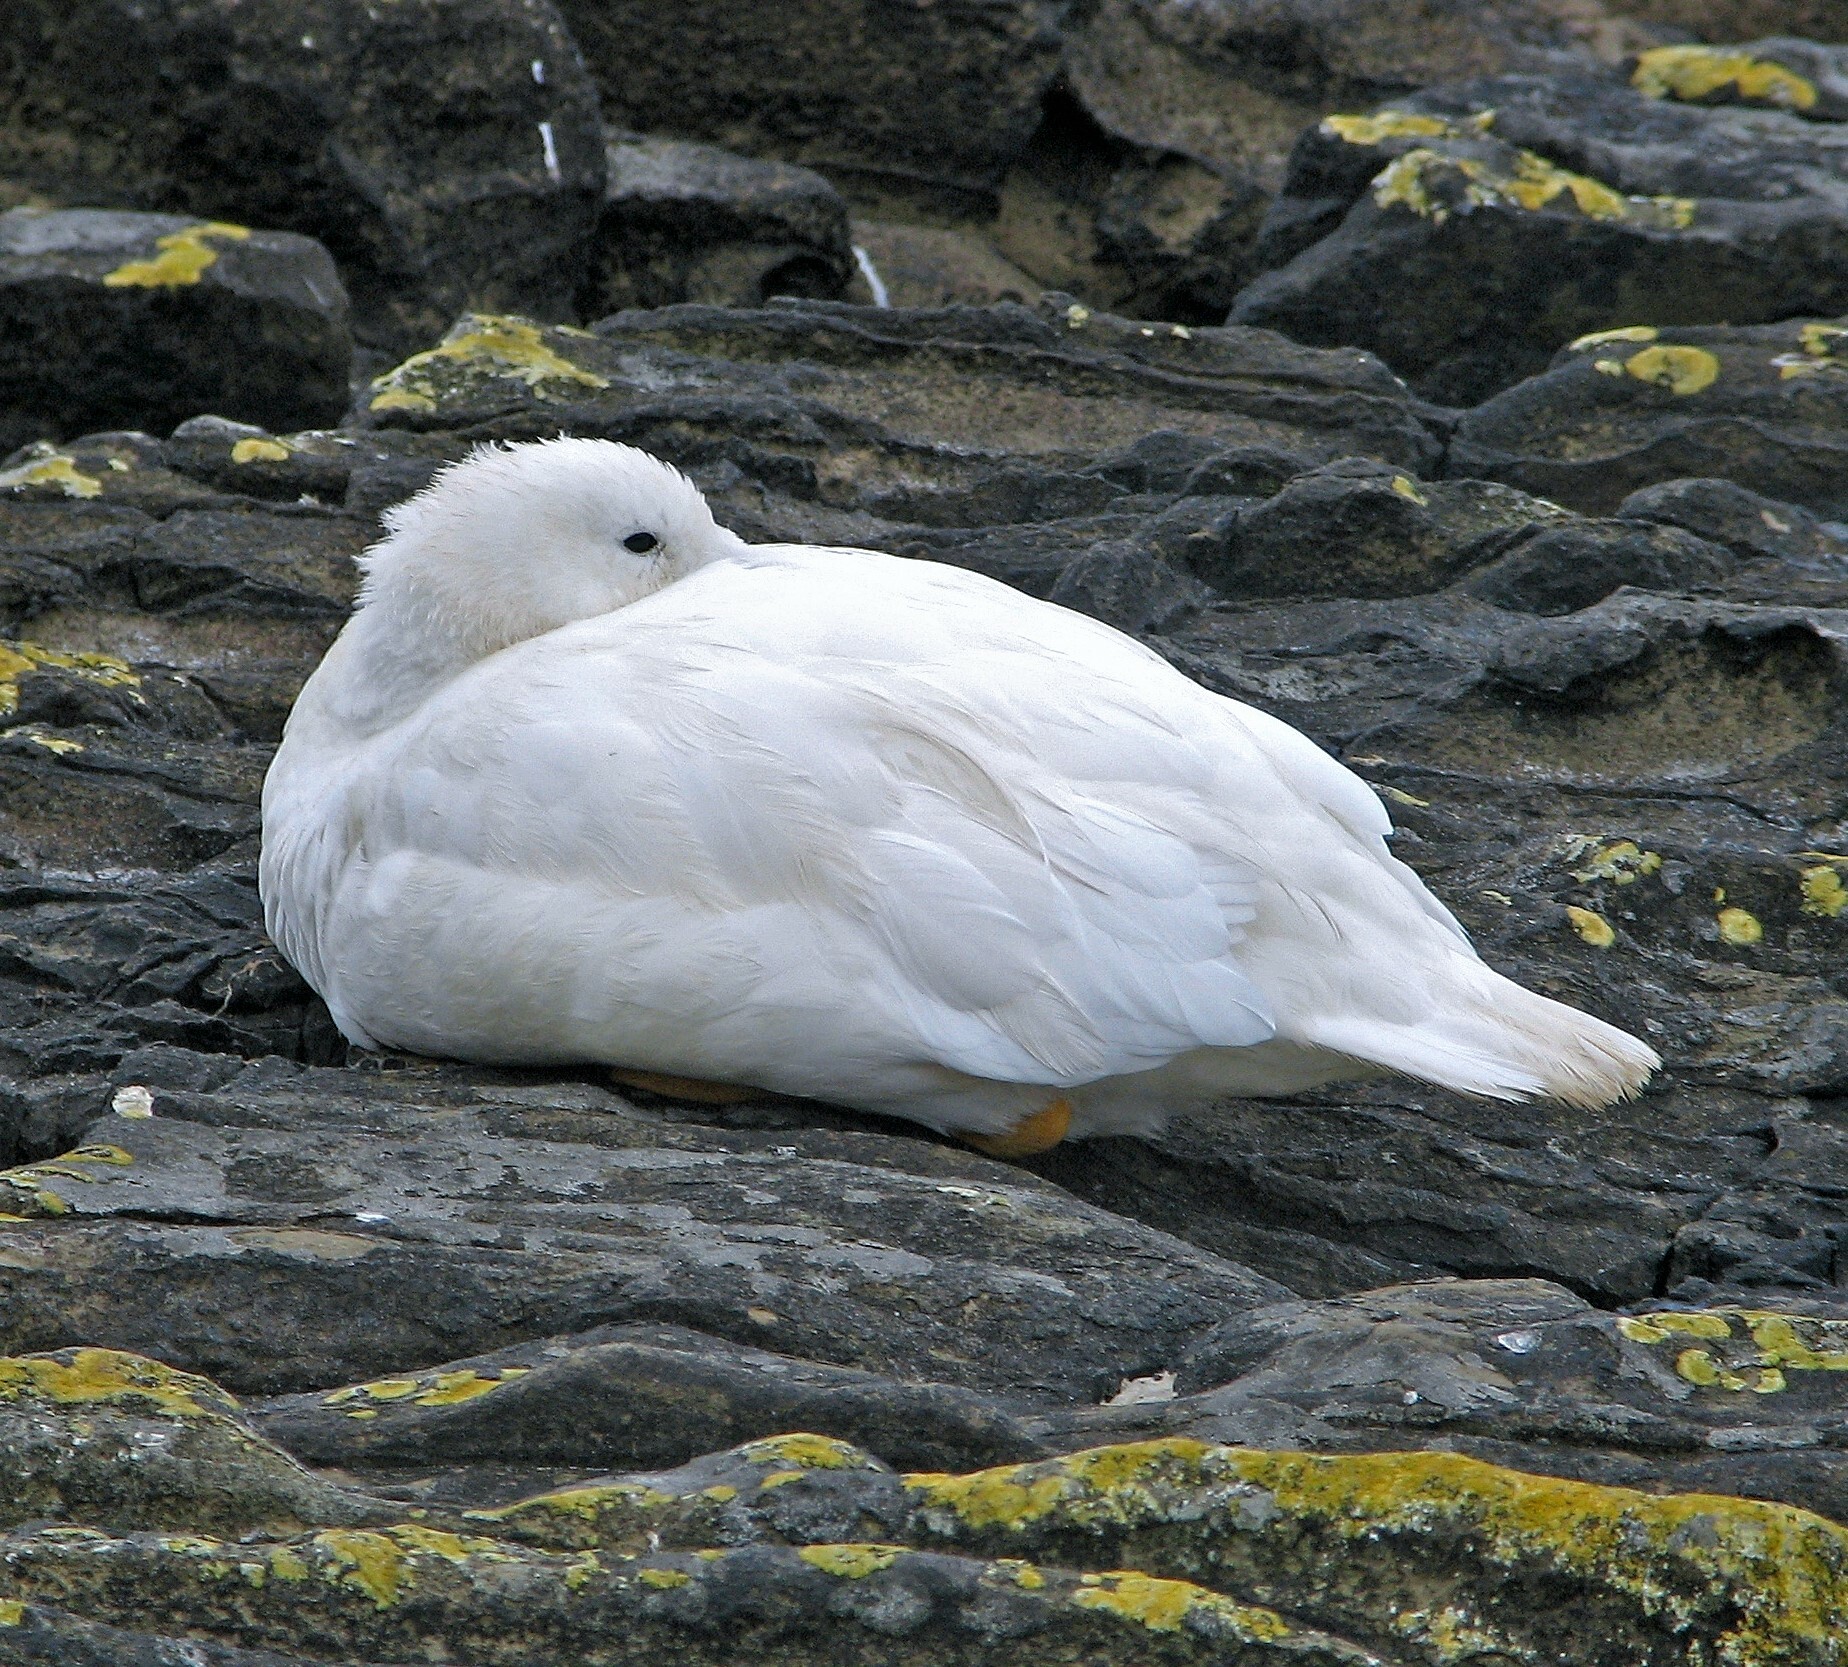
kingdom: Animalia
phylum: Chordata
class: Aves
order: Anseriformes
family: Anatidae
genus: Chloephaga
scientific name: Chloephaga hybrida
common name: Kelp goose
